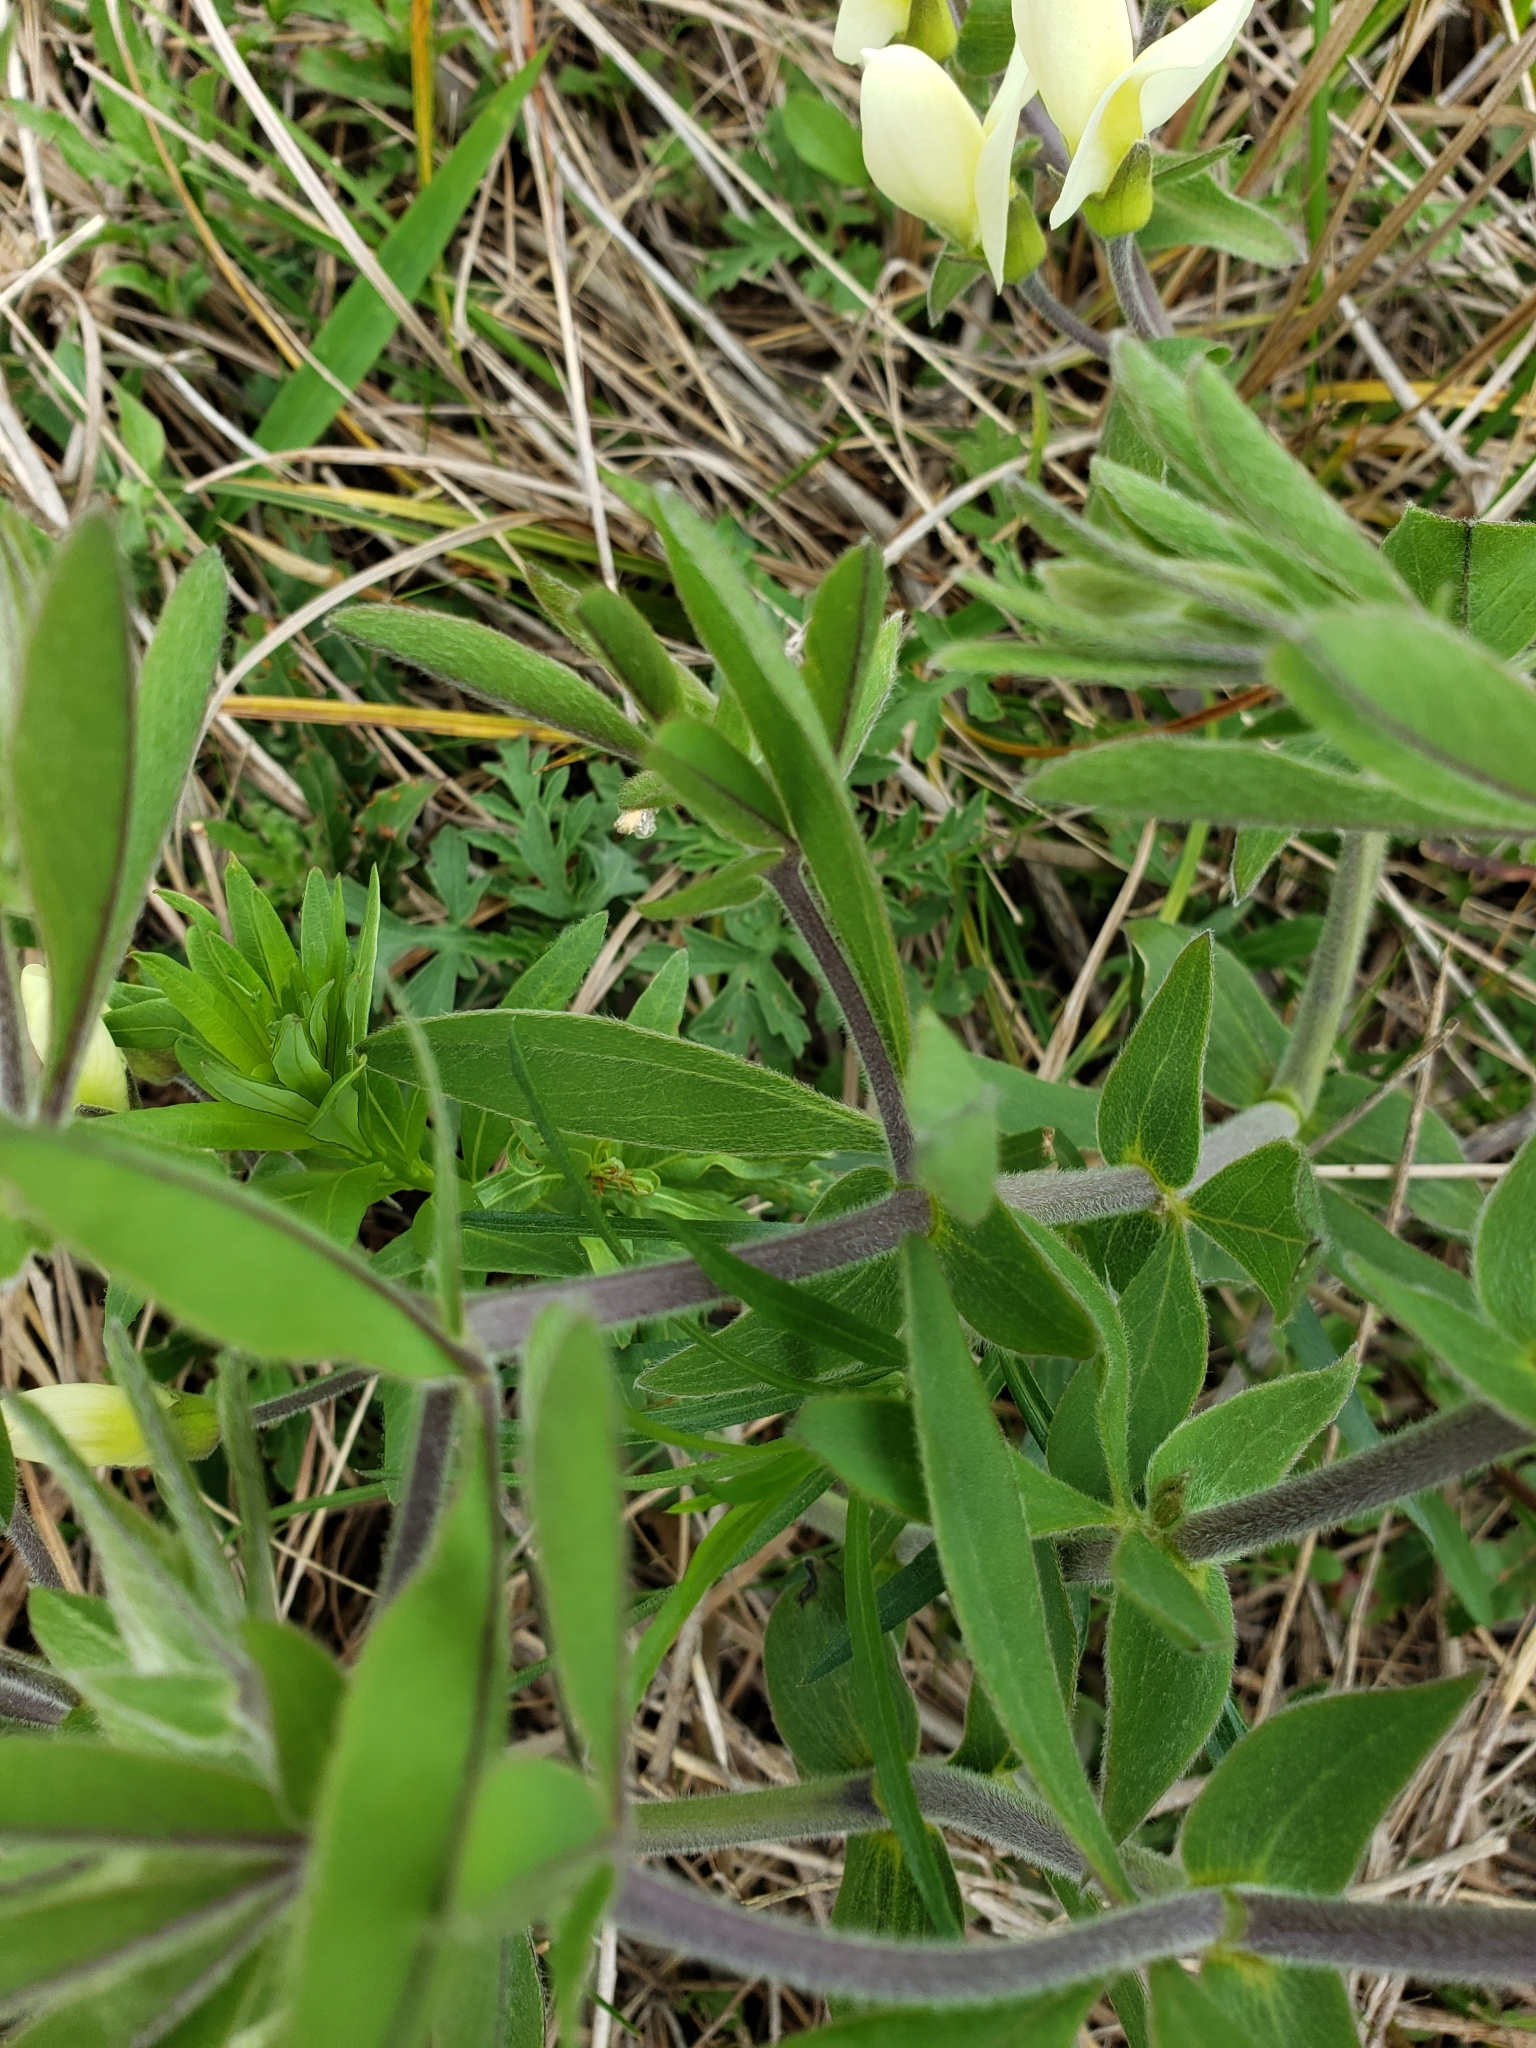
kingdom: Plantae
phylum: Tracheophyta
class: Magnoliopsida
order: Fabales
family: Fabaceae
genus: Baptisia
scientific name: Baptisia bracteata
